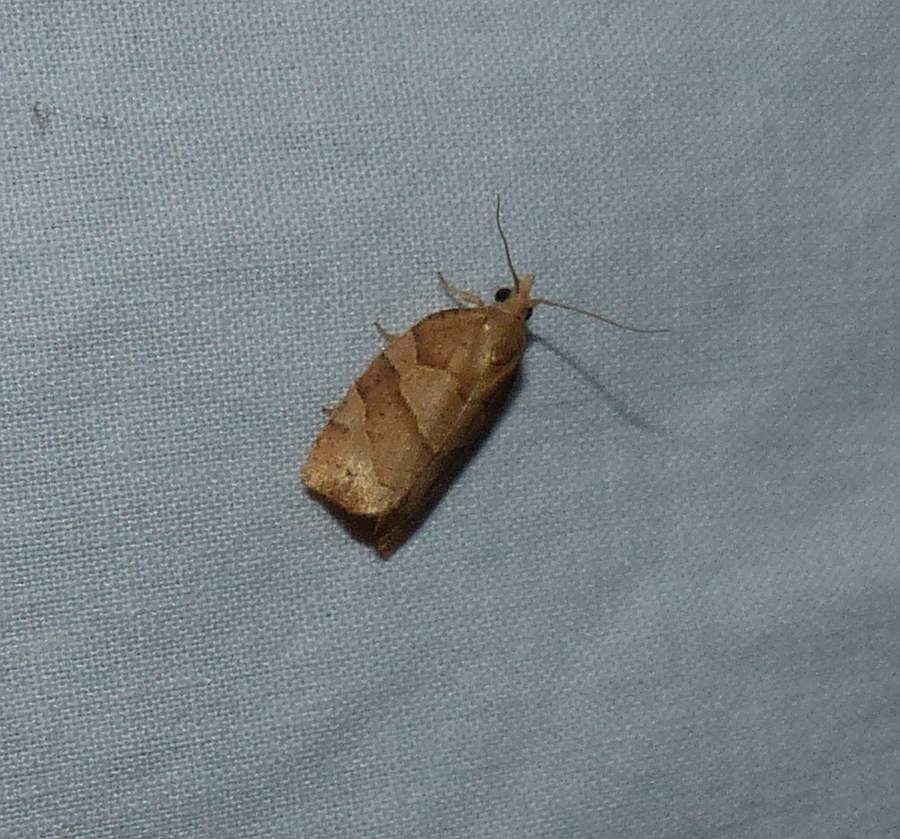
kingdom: Animalia
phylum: Arthropoda
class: Insecta
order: Lepidoptera
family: Tortricidae
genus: Pandemis
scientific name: Pandemis lamprosana
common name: Woodgrain leafroller moth
